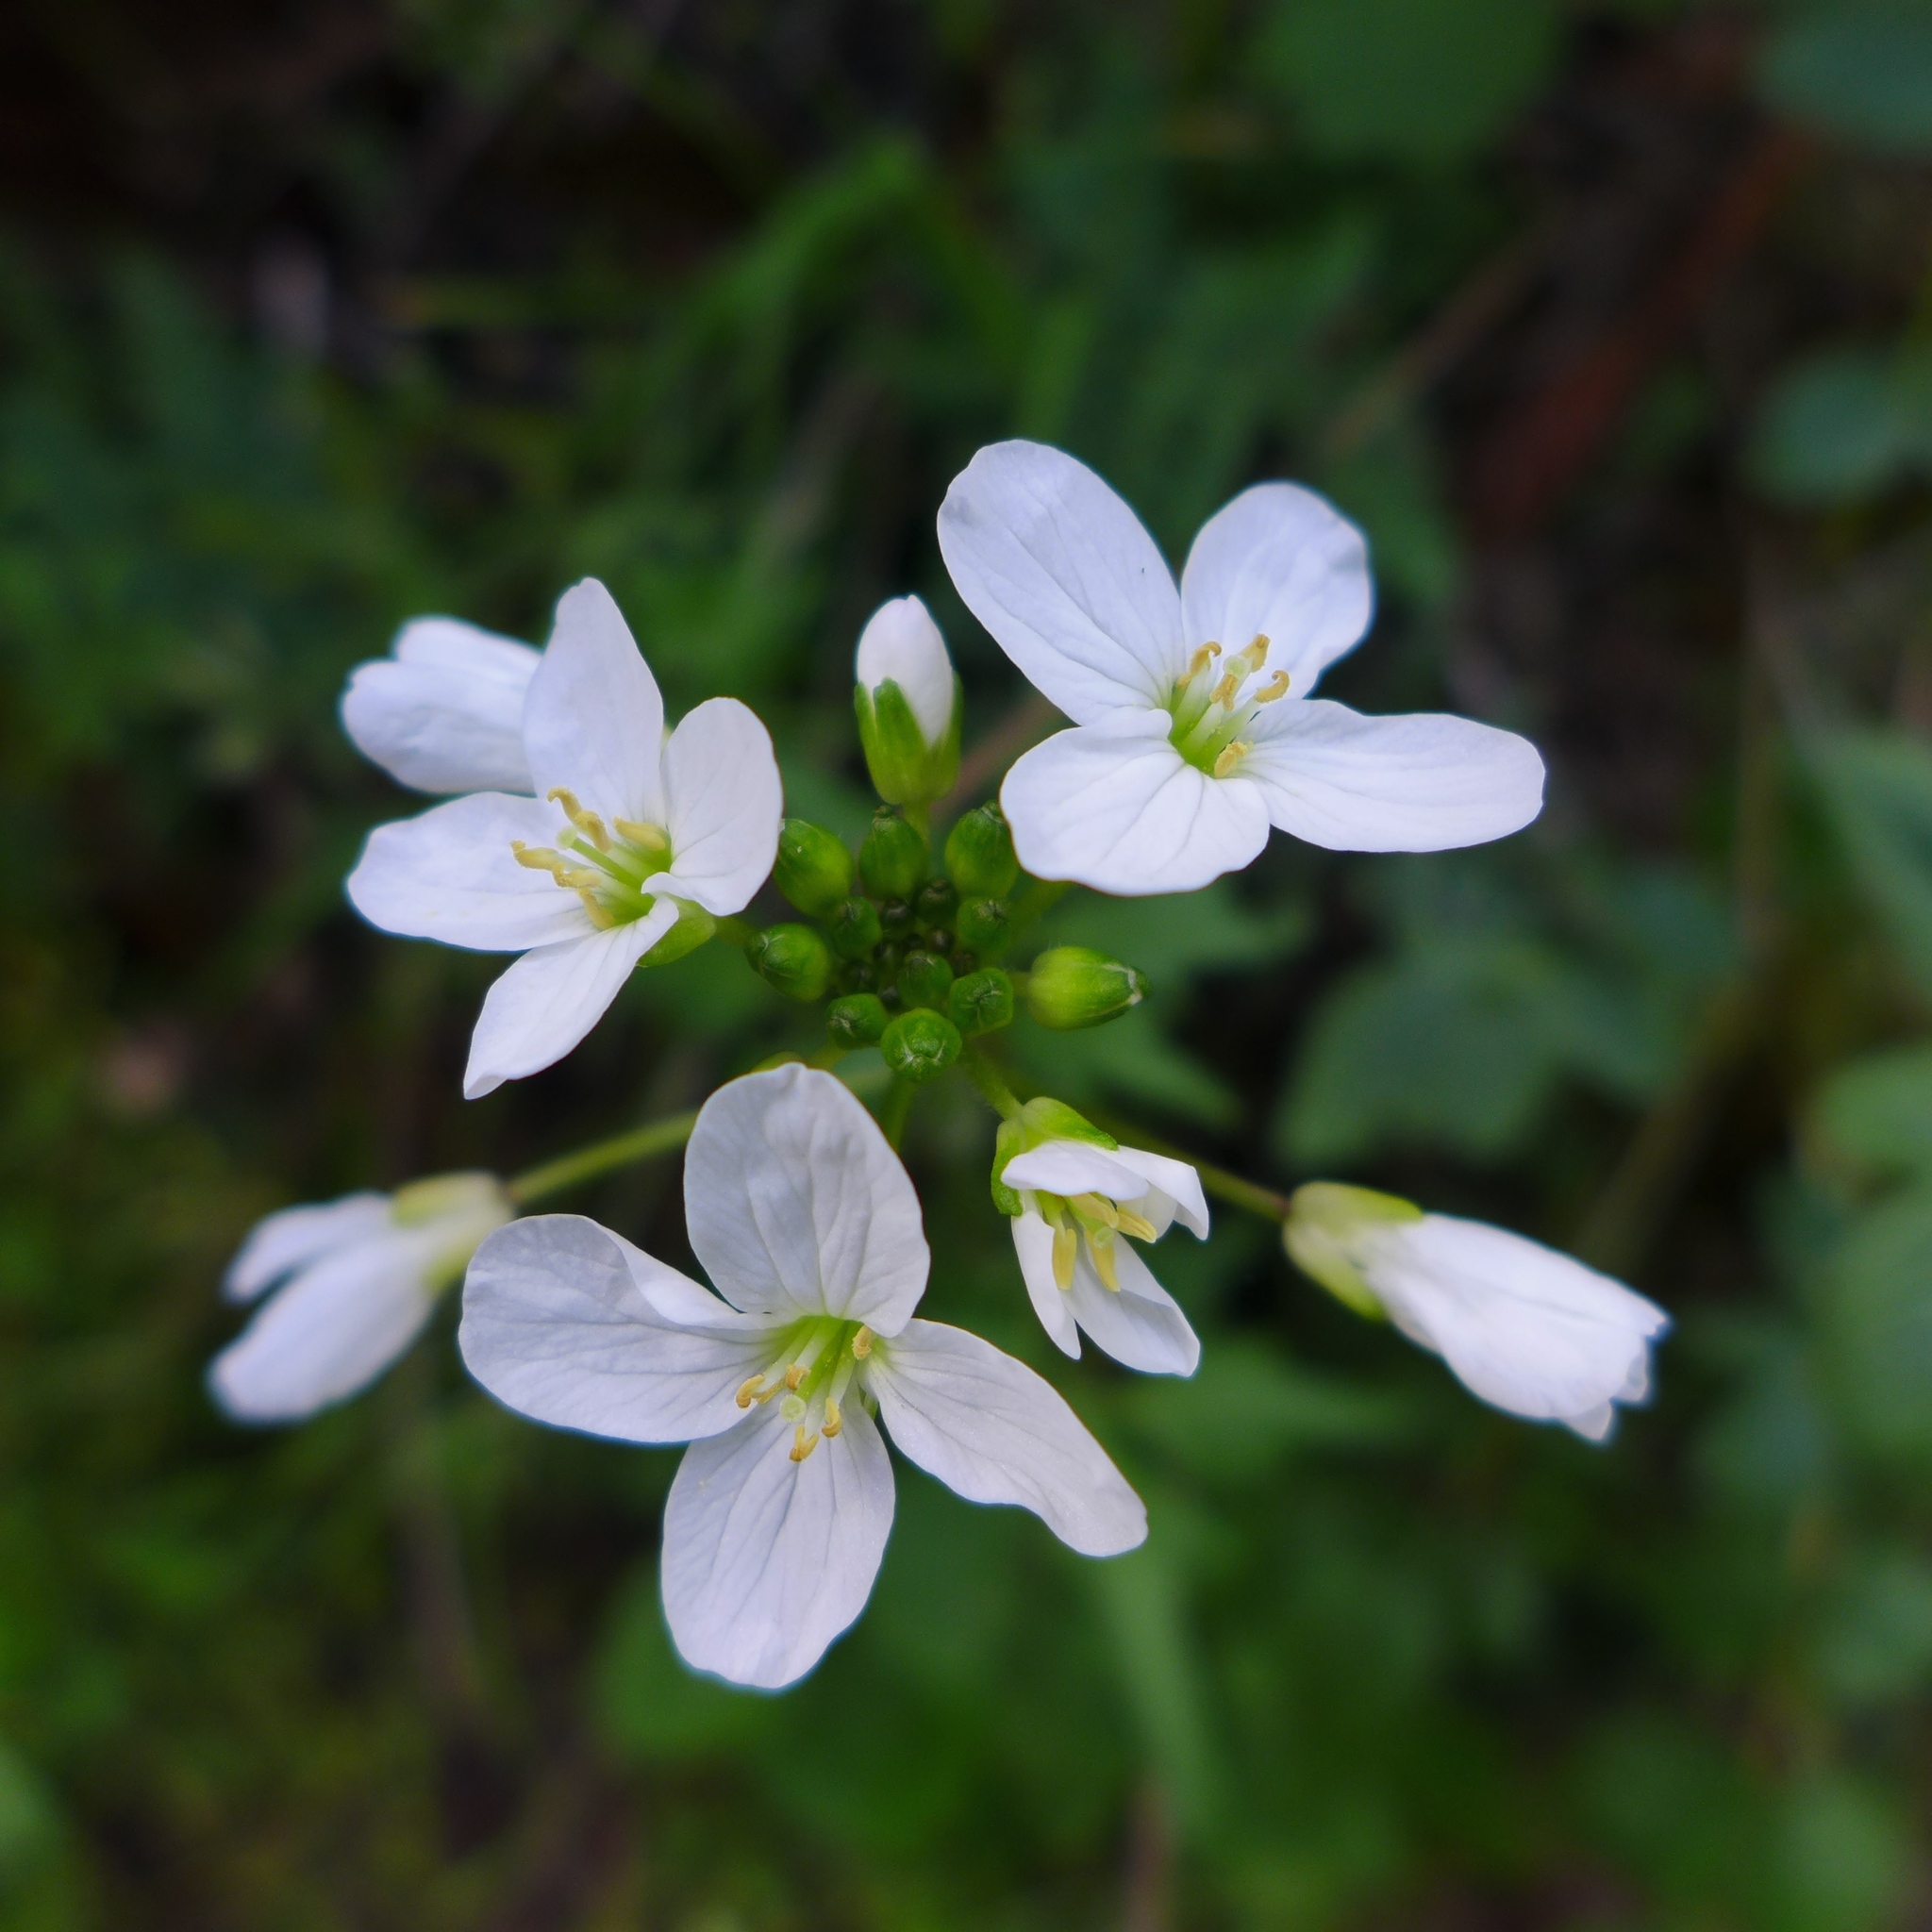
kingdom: Plantae
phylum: Tracheophyta
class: Magnoliopsida
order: Brassicales
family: Brassicaceae
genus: Cardamine
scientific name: Cardamine californica
